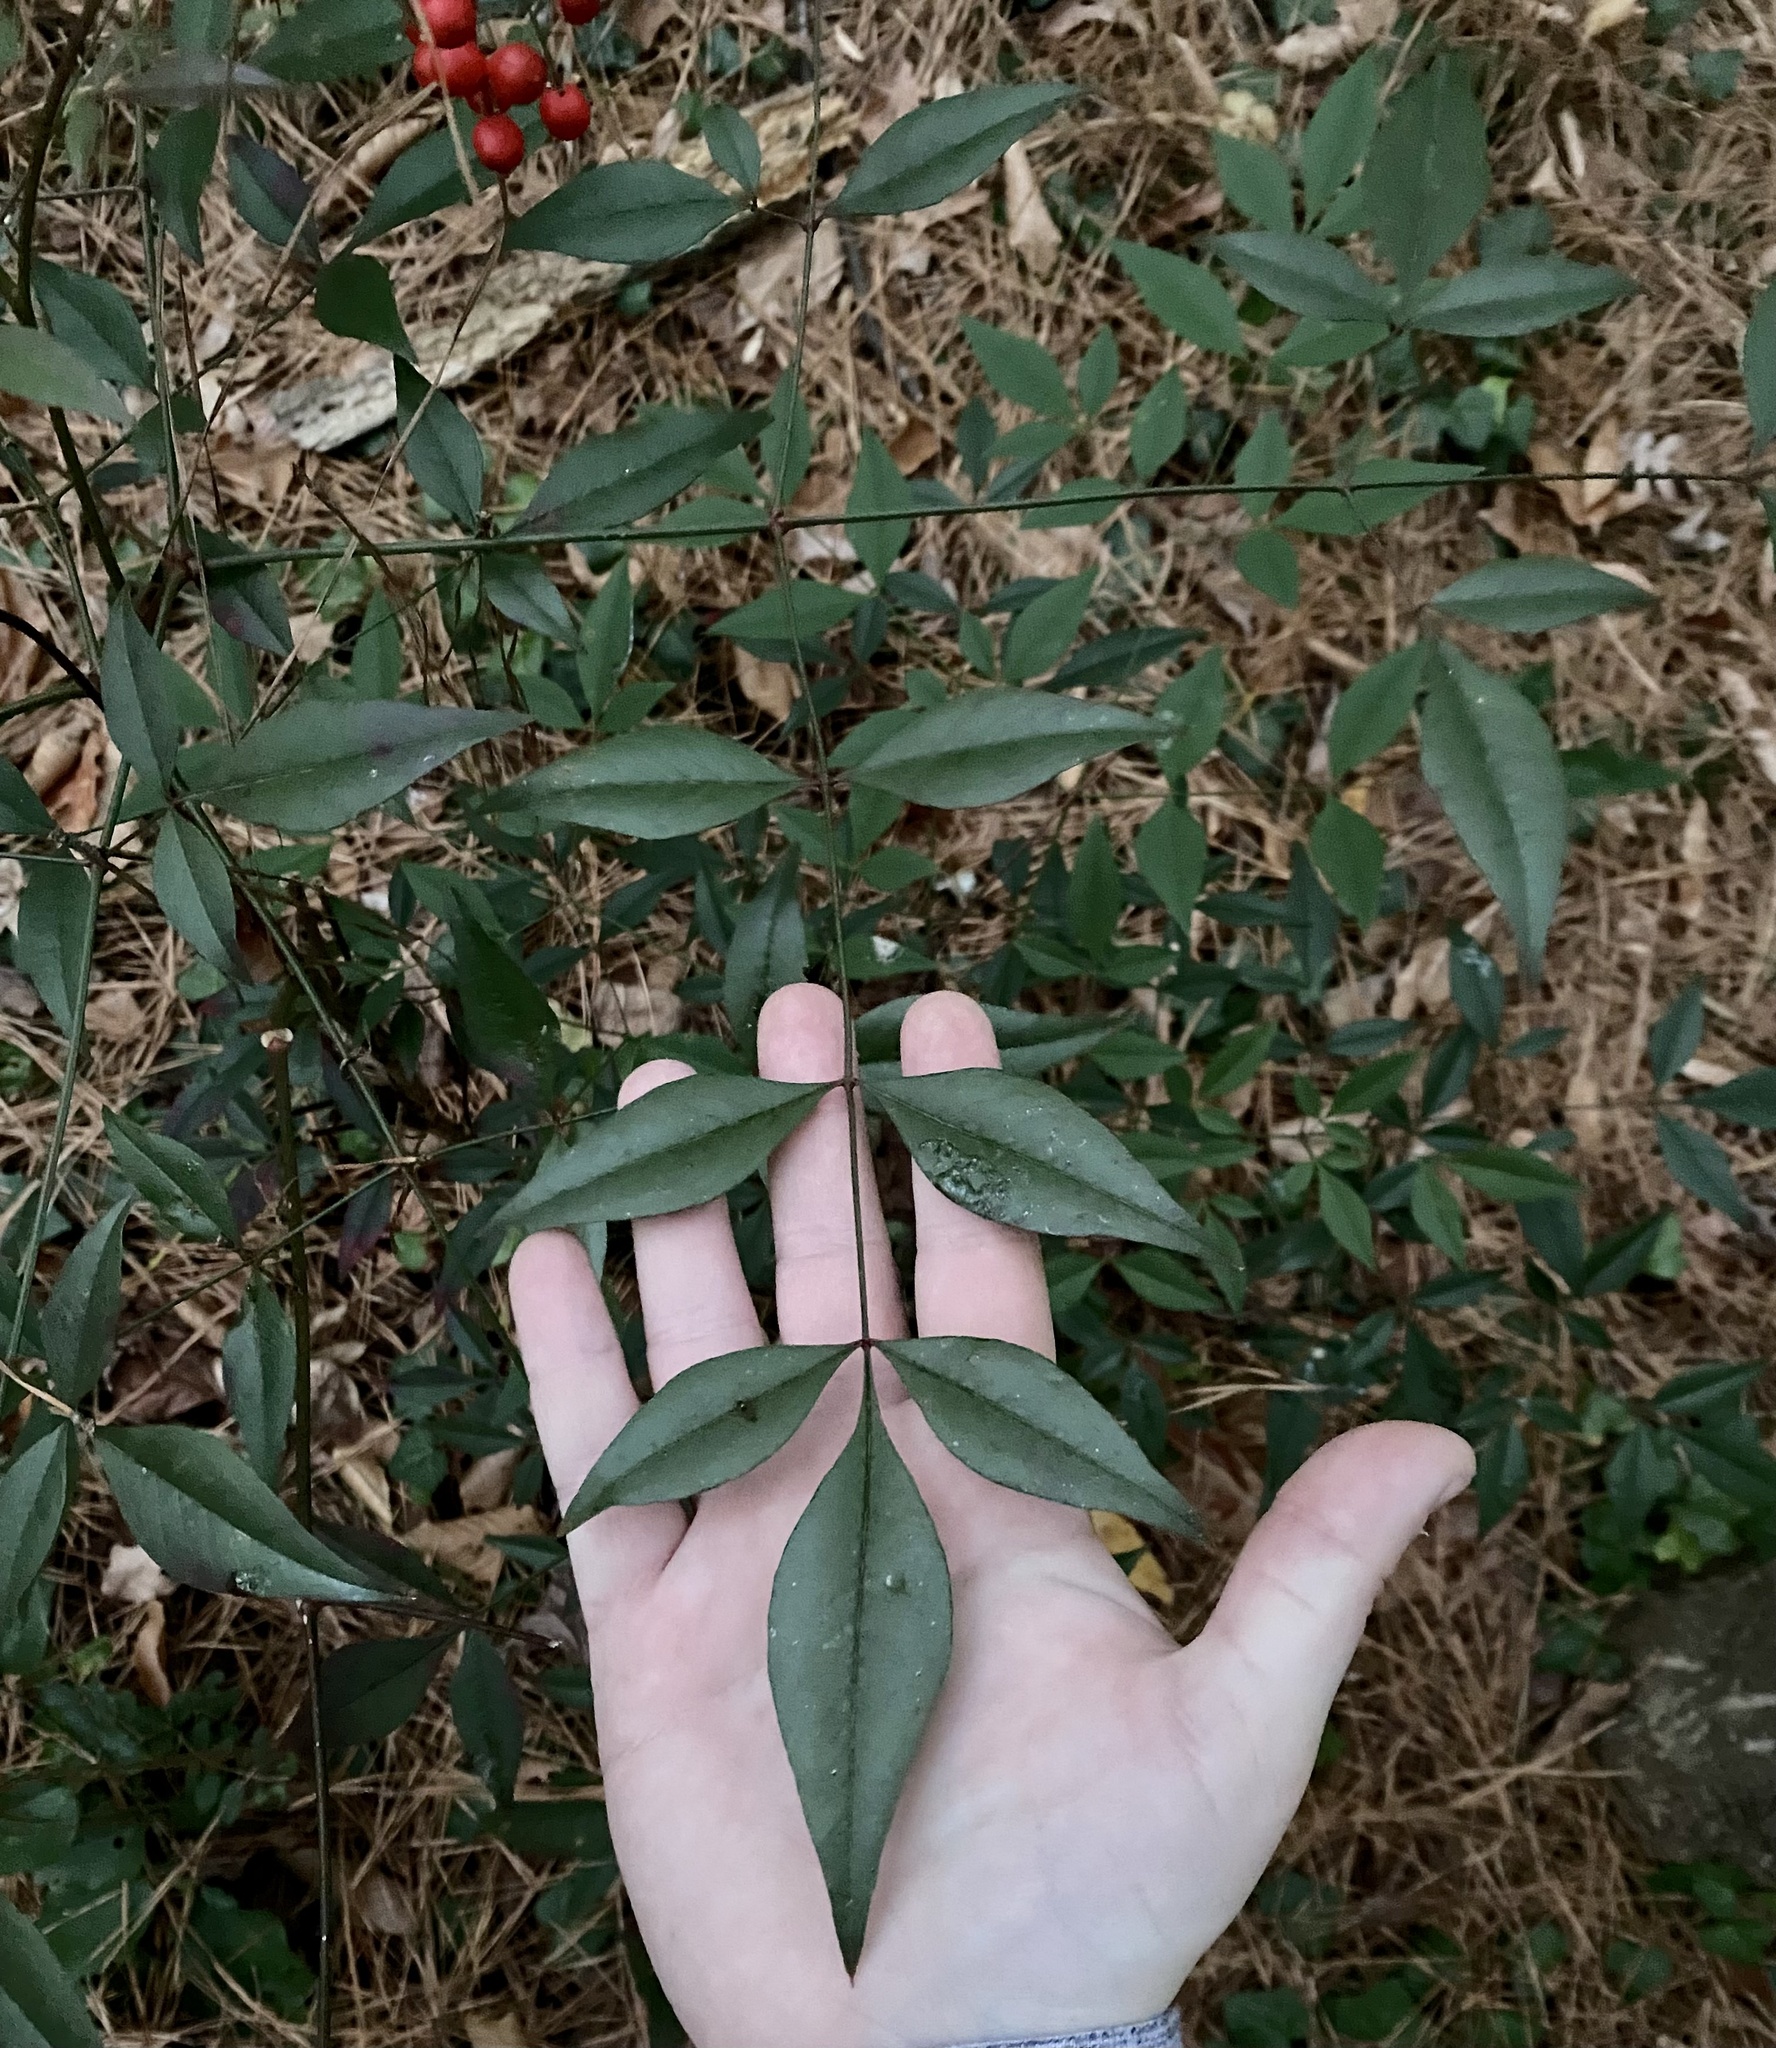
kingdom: Plantae
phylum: Tracheophyta
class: Magnoliopsida
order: Ranunculales
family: Berberidaceae
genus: Nandina
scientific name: Nandina domestica
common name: Sacred bamboo
